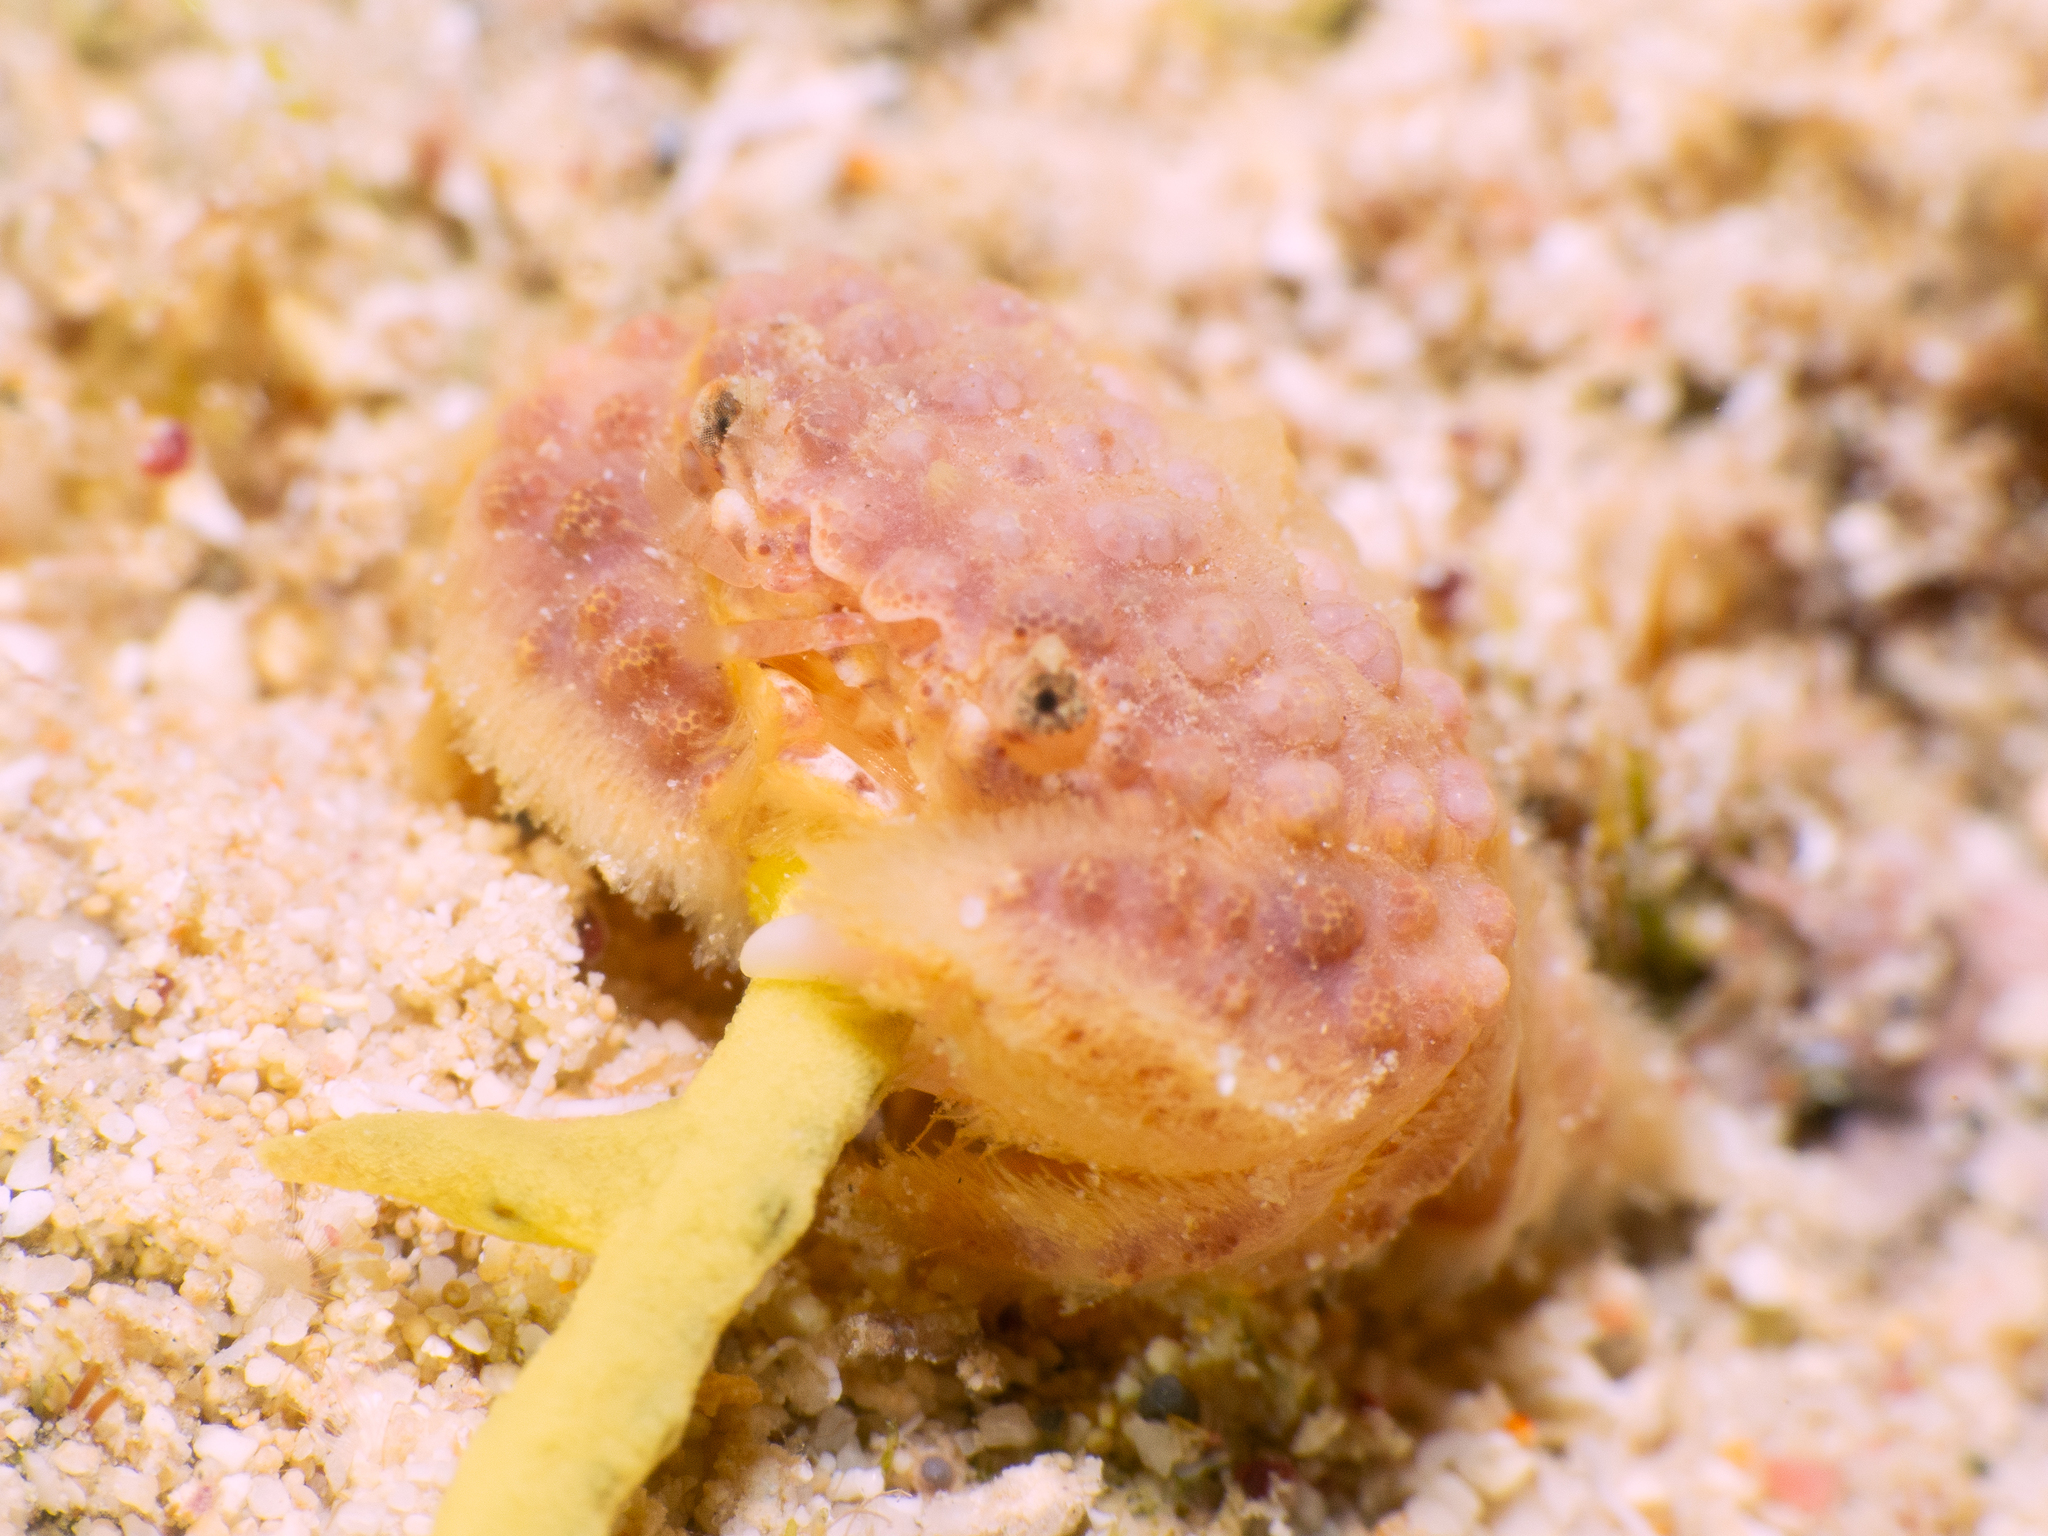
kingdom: Animalia
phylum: Arthropoda
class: Malacostraca
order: Decapoda
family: Xanthidae
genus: Paractaea
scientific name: Paractaea rufopunctata
